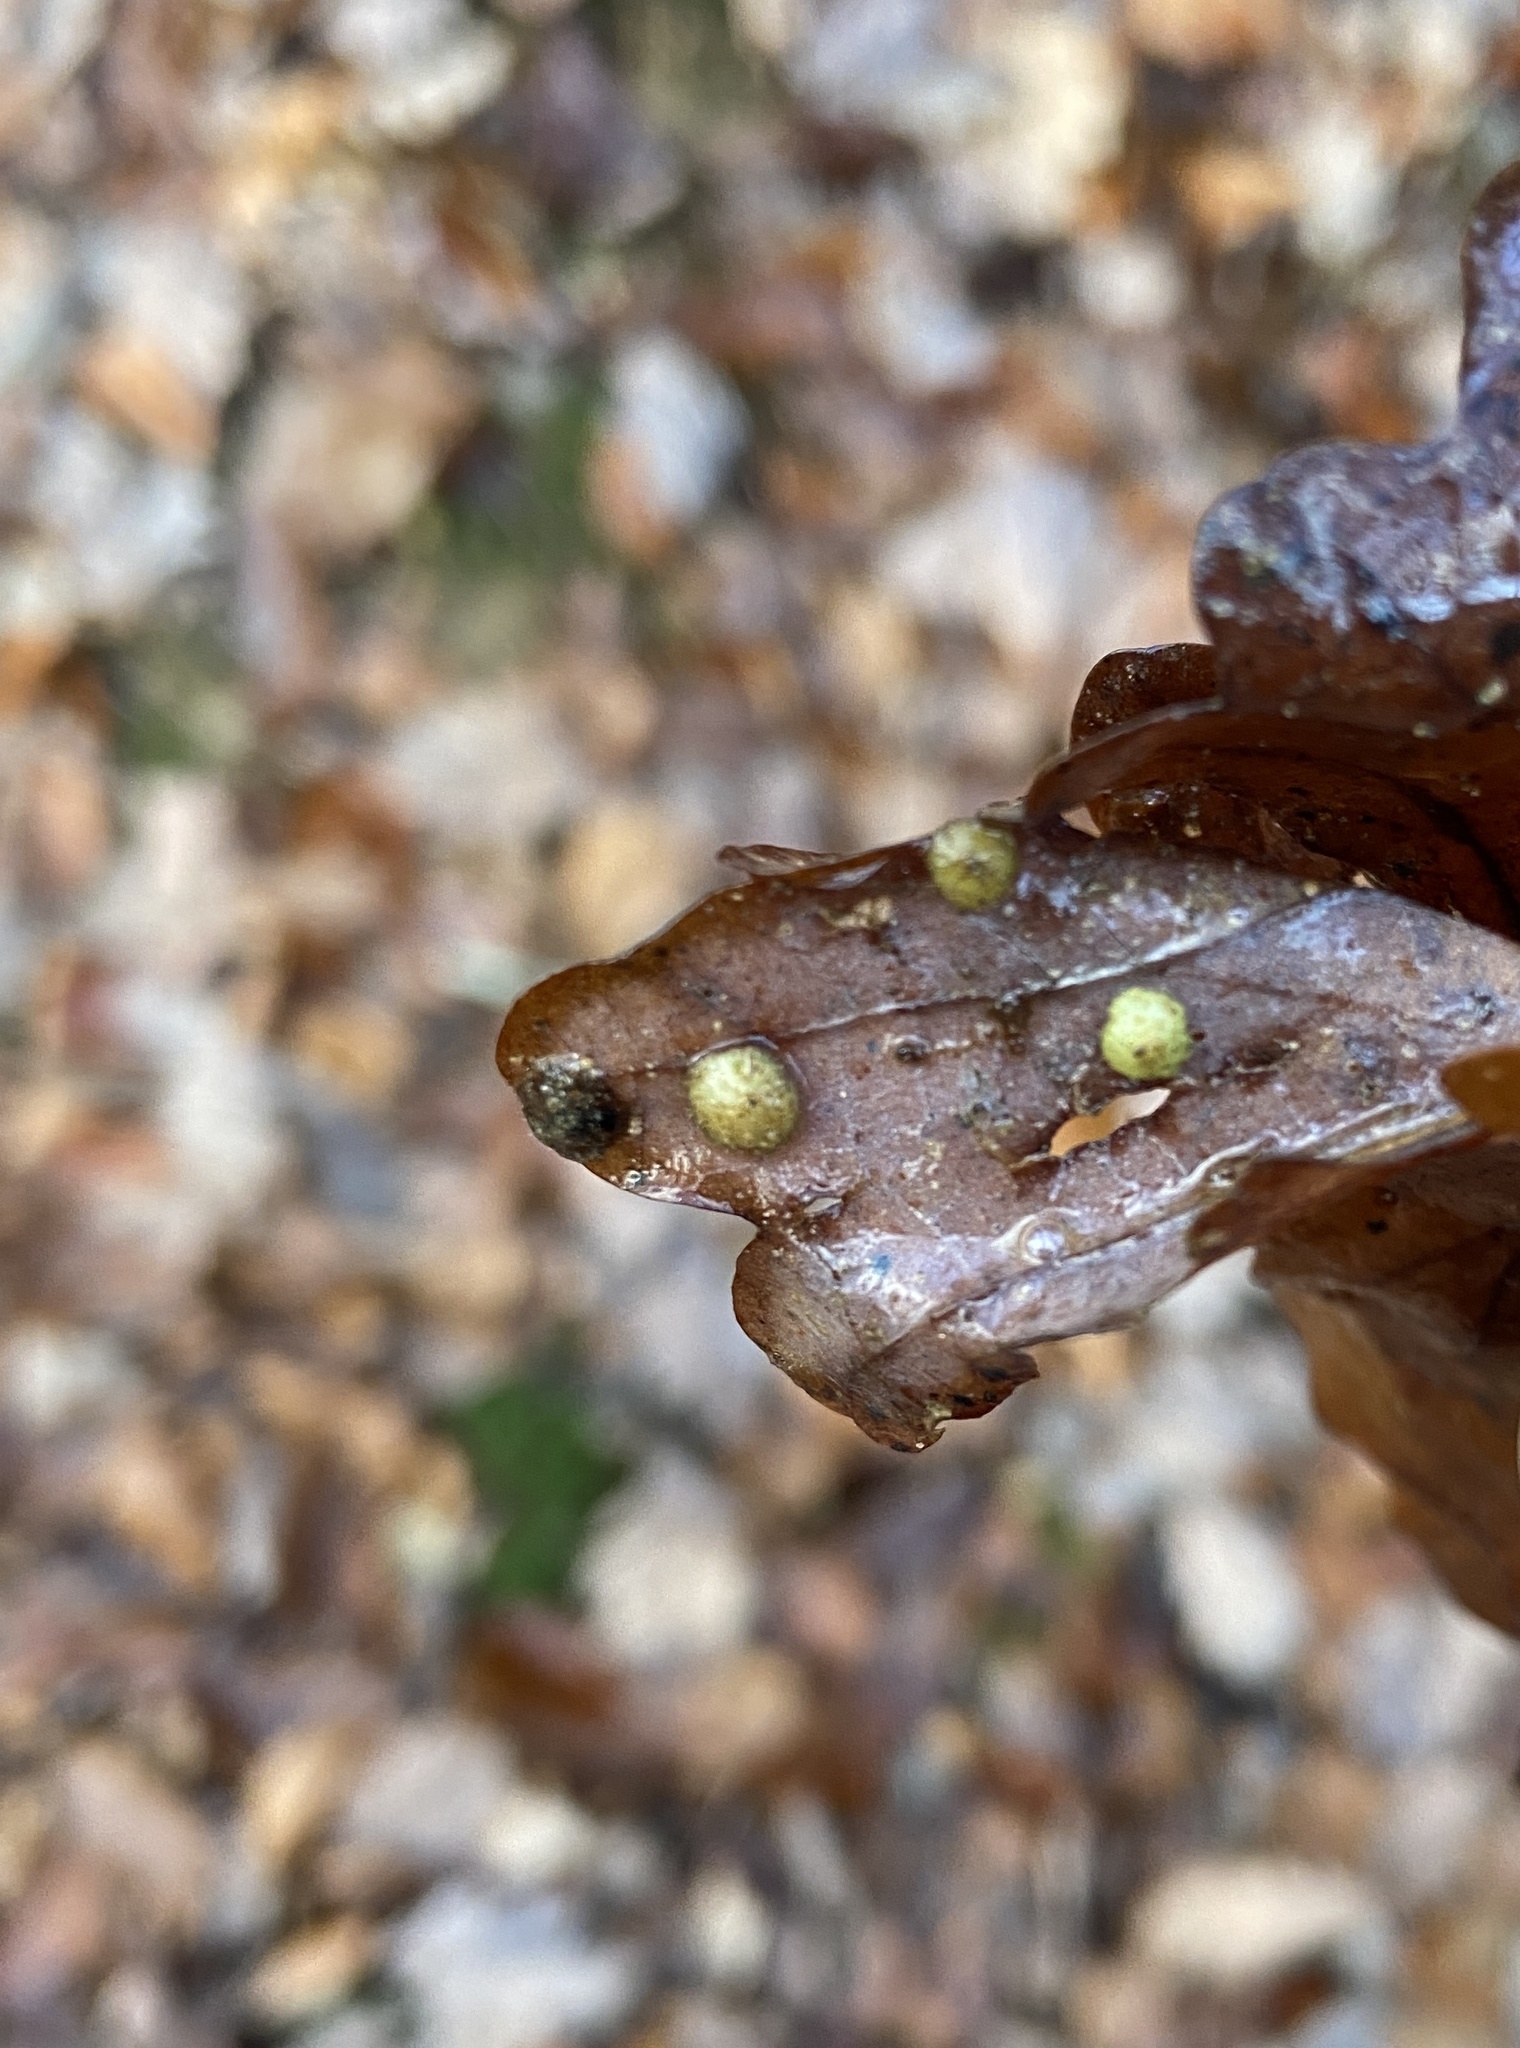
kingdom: Animalia
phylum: Arthropoda
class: Insecta
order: Hymenoptera
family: Cynipidae
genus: Neuroterus
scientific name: Neuroterus quercusbaccarum
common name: Common spangle gall
